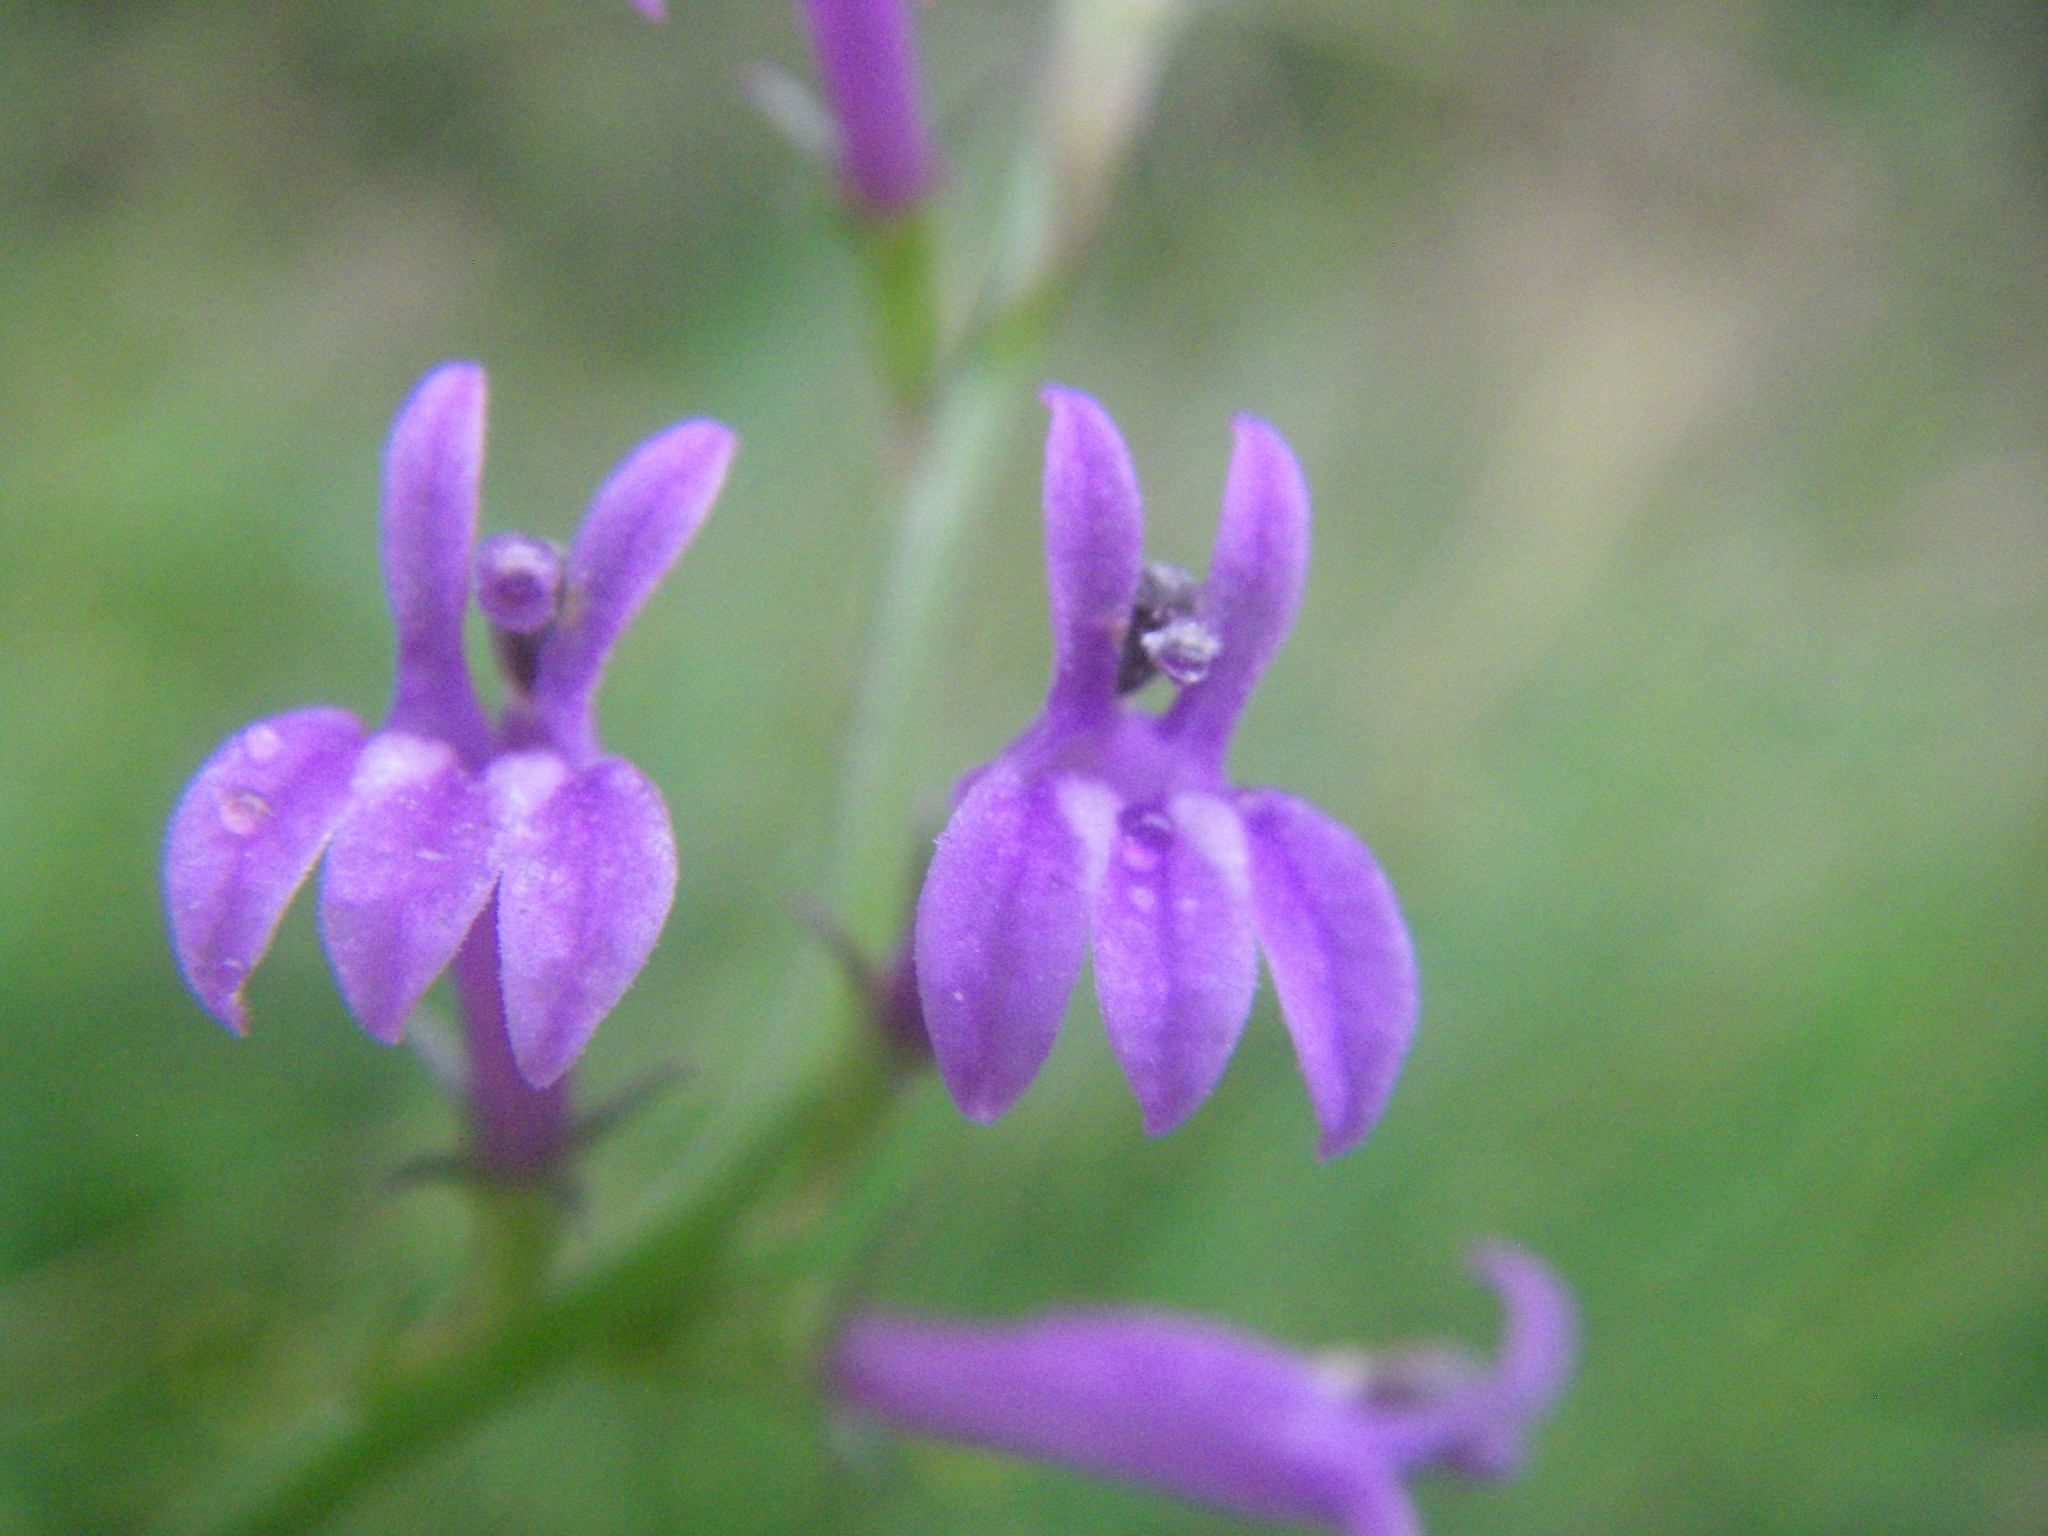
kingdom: Plantae
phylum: Tracheophyta
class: Magnoliopsida
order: Asterales
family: Campanulaceae
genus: Lobelia
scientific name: Lobelia urens
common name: Heath lobelia
